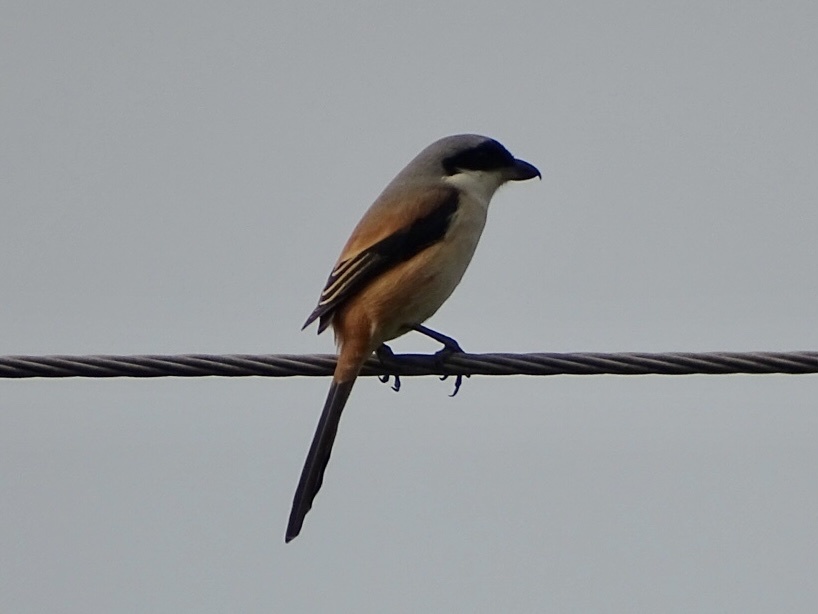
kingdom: Animalia
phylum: Chordata
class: Aves
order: Passeriformes
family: Laniidae
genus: Lanius
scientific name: Lanius schach
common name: Long-tailed shrike
